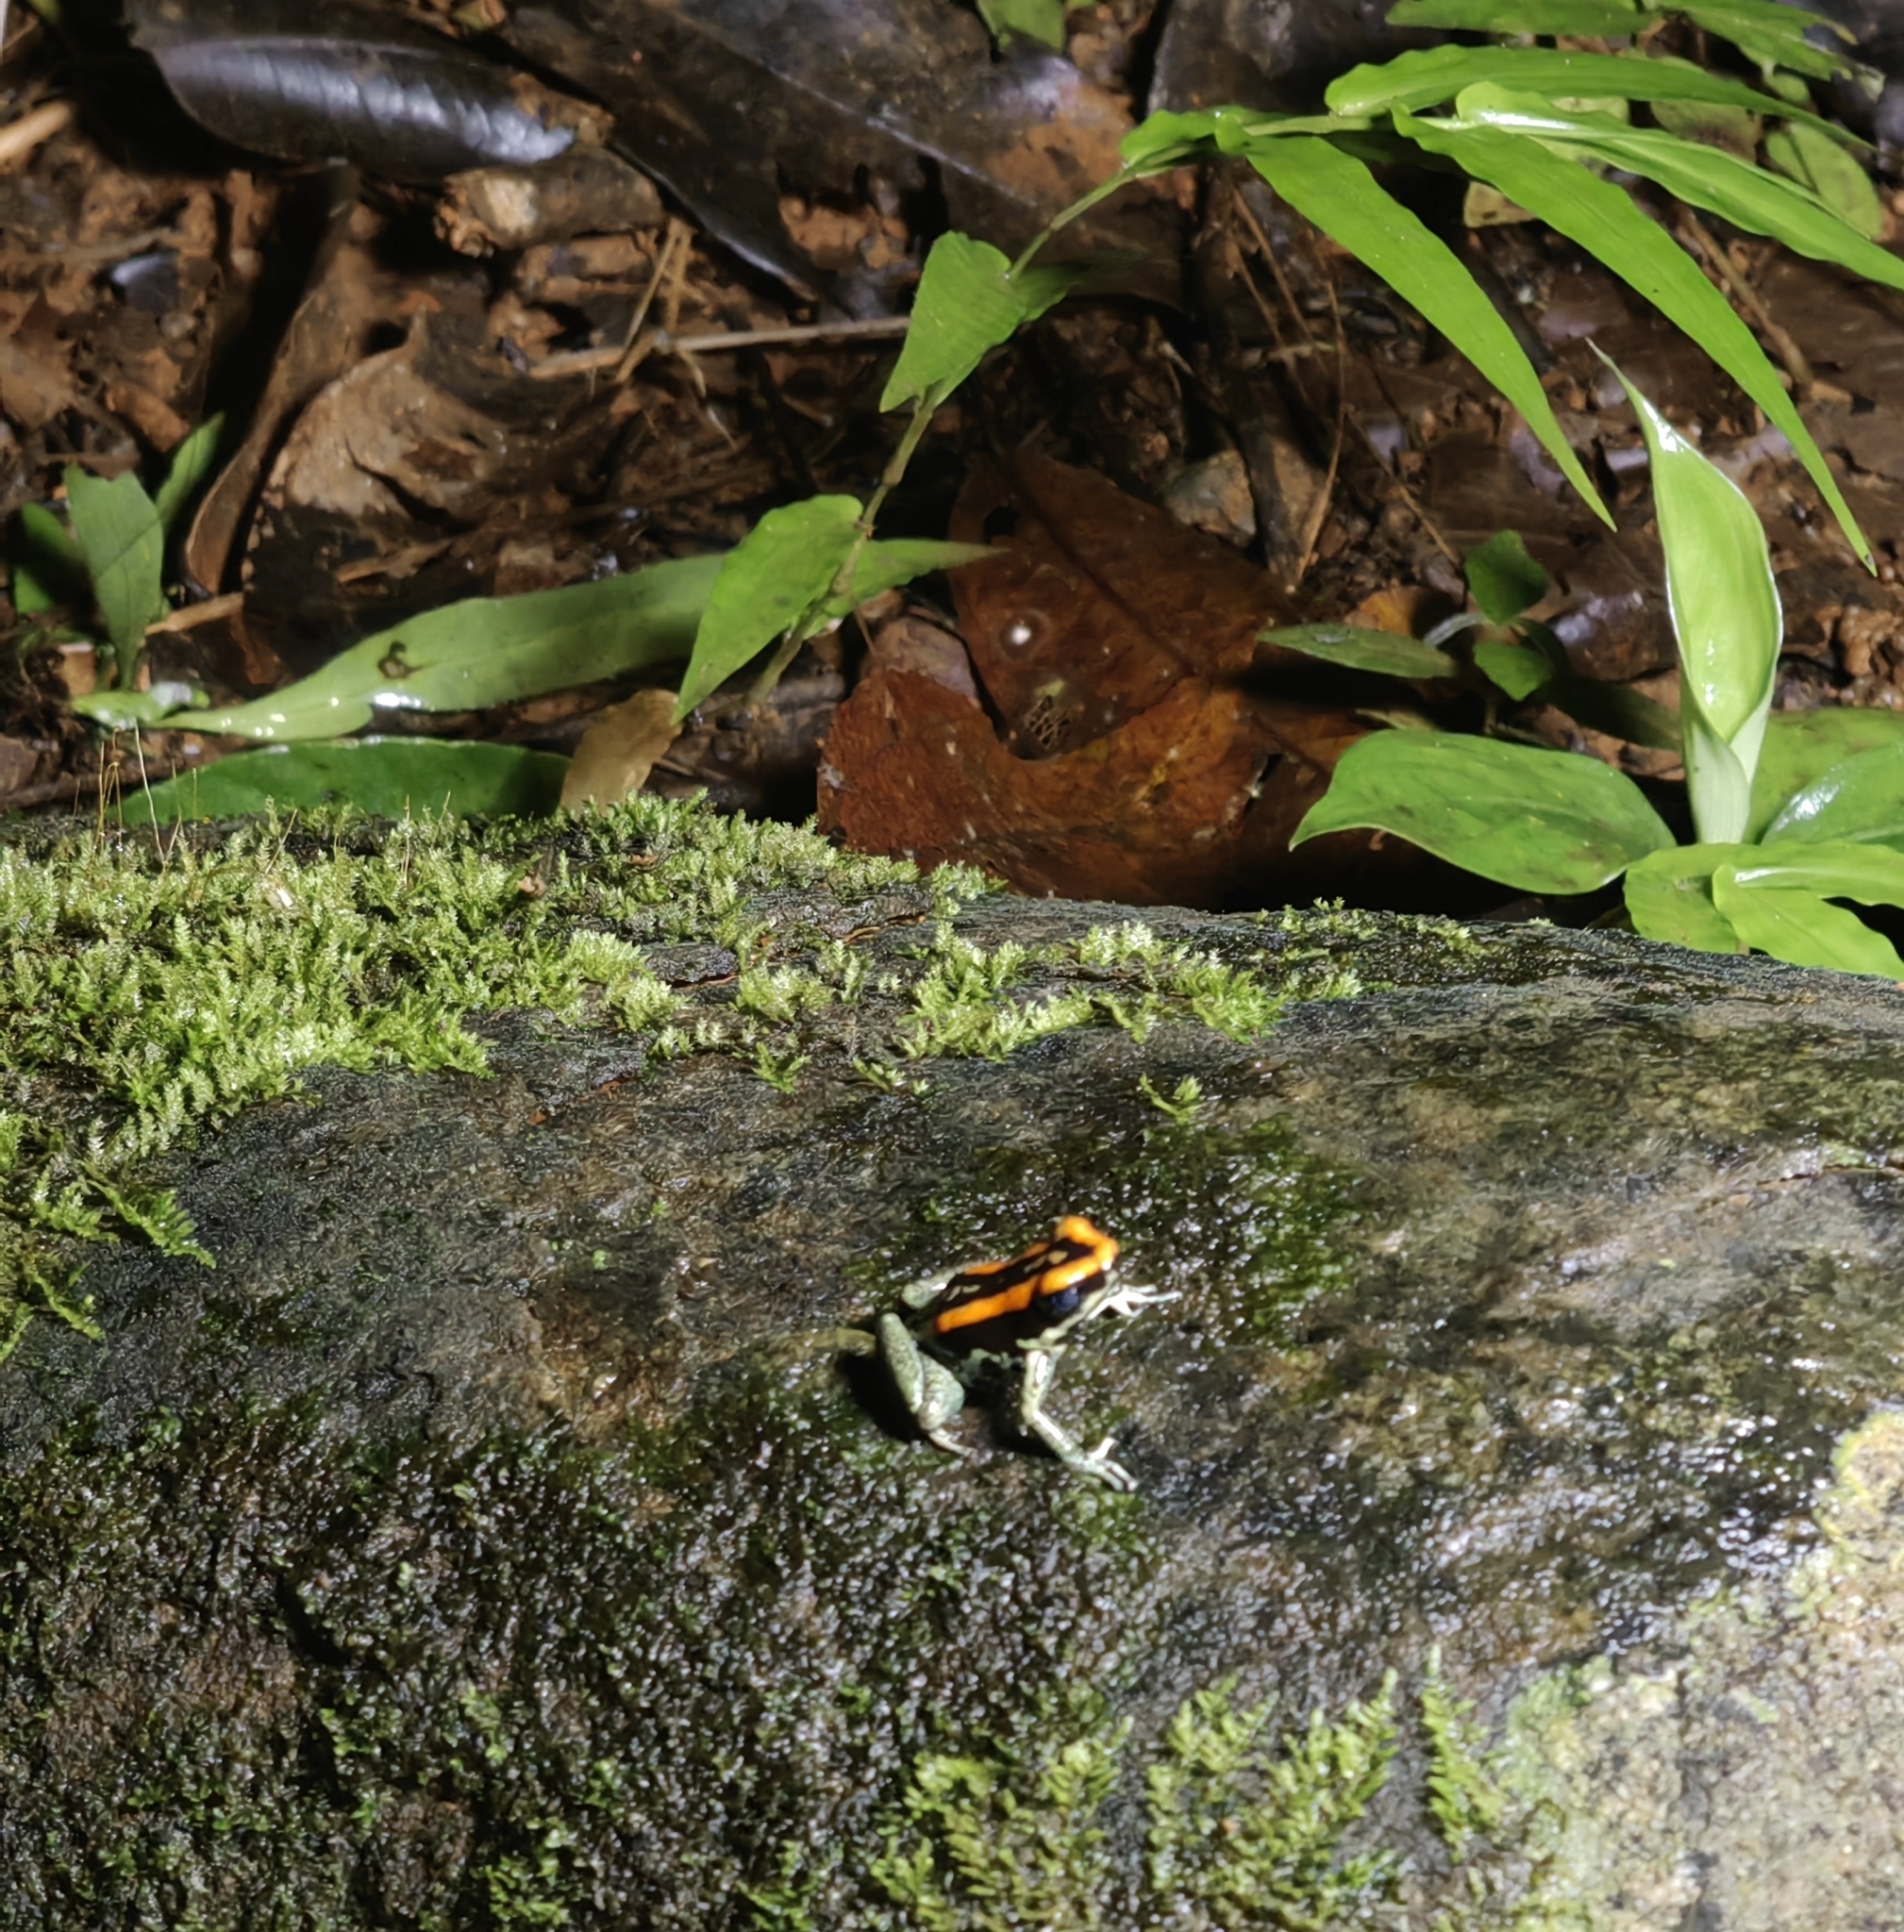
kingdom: Animalia
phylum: Chordata
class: Amphibia
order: Anura
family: Dendrobatidae
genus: Phyllobates
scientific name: Phyllobates vittatus
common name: Golfodulcean poison frog
